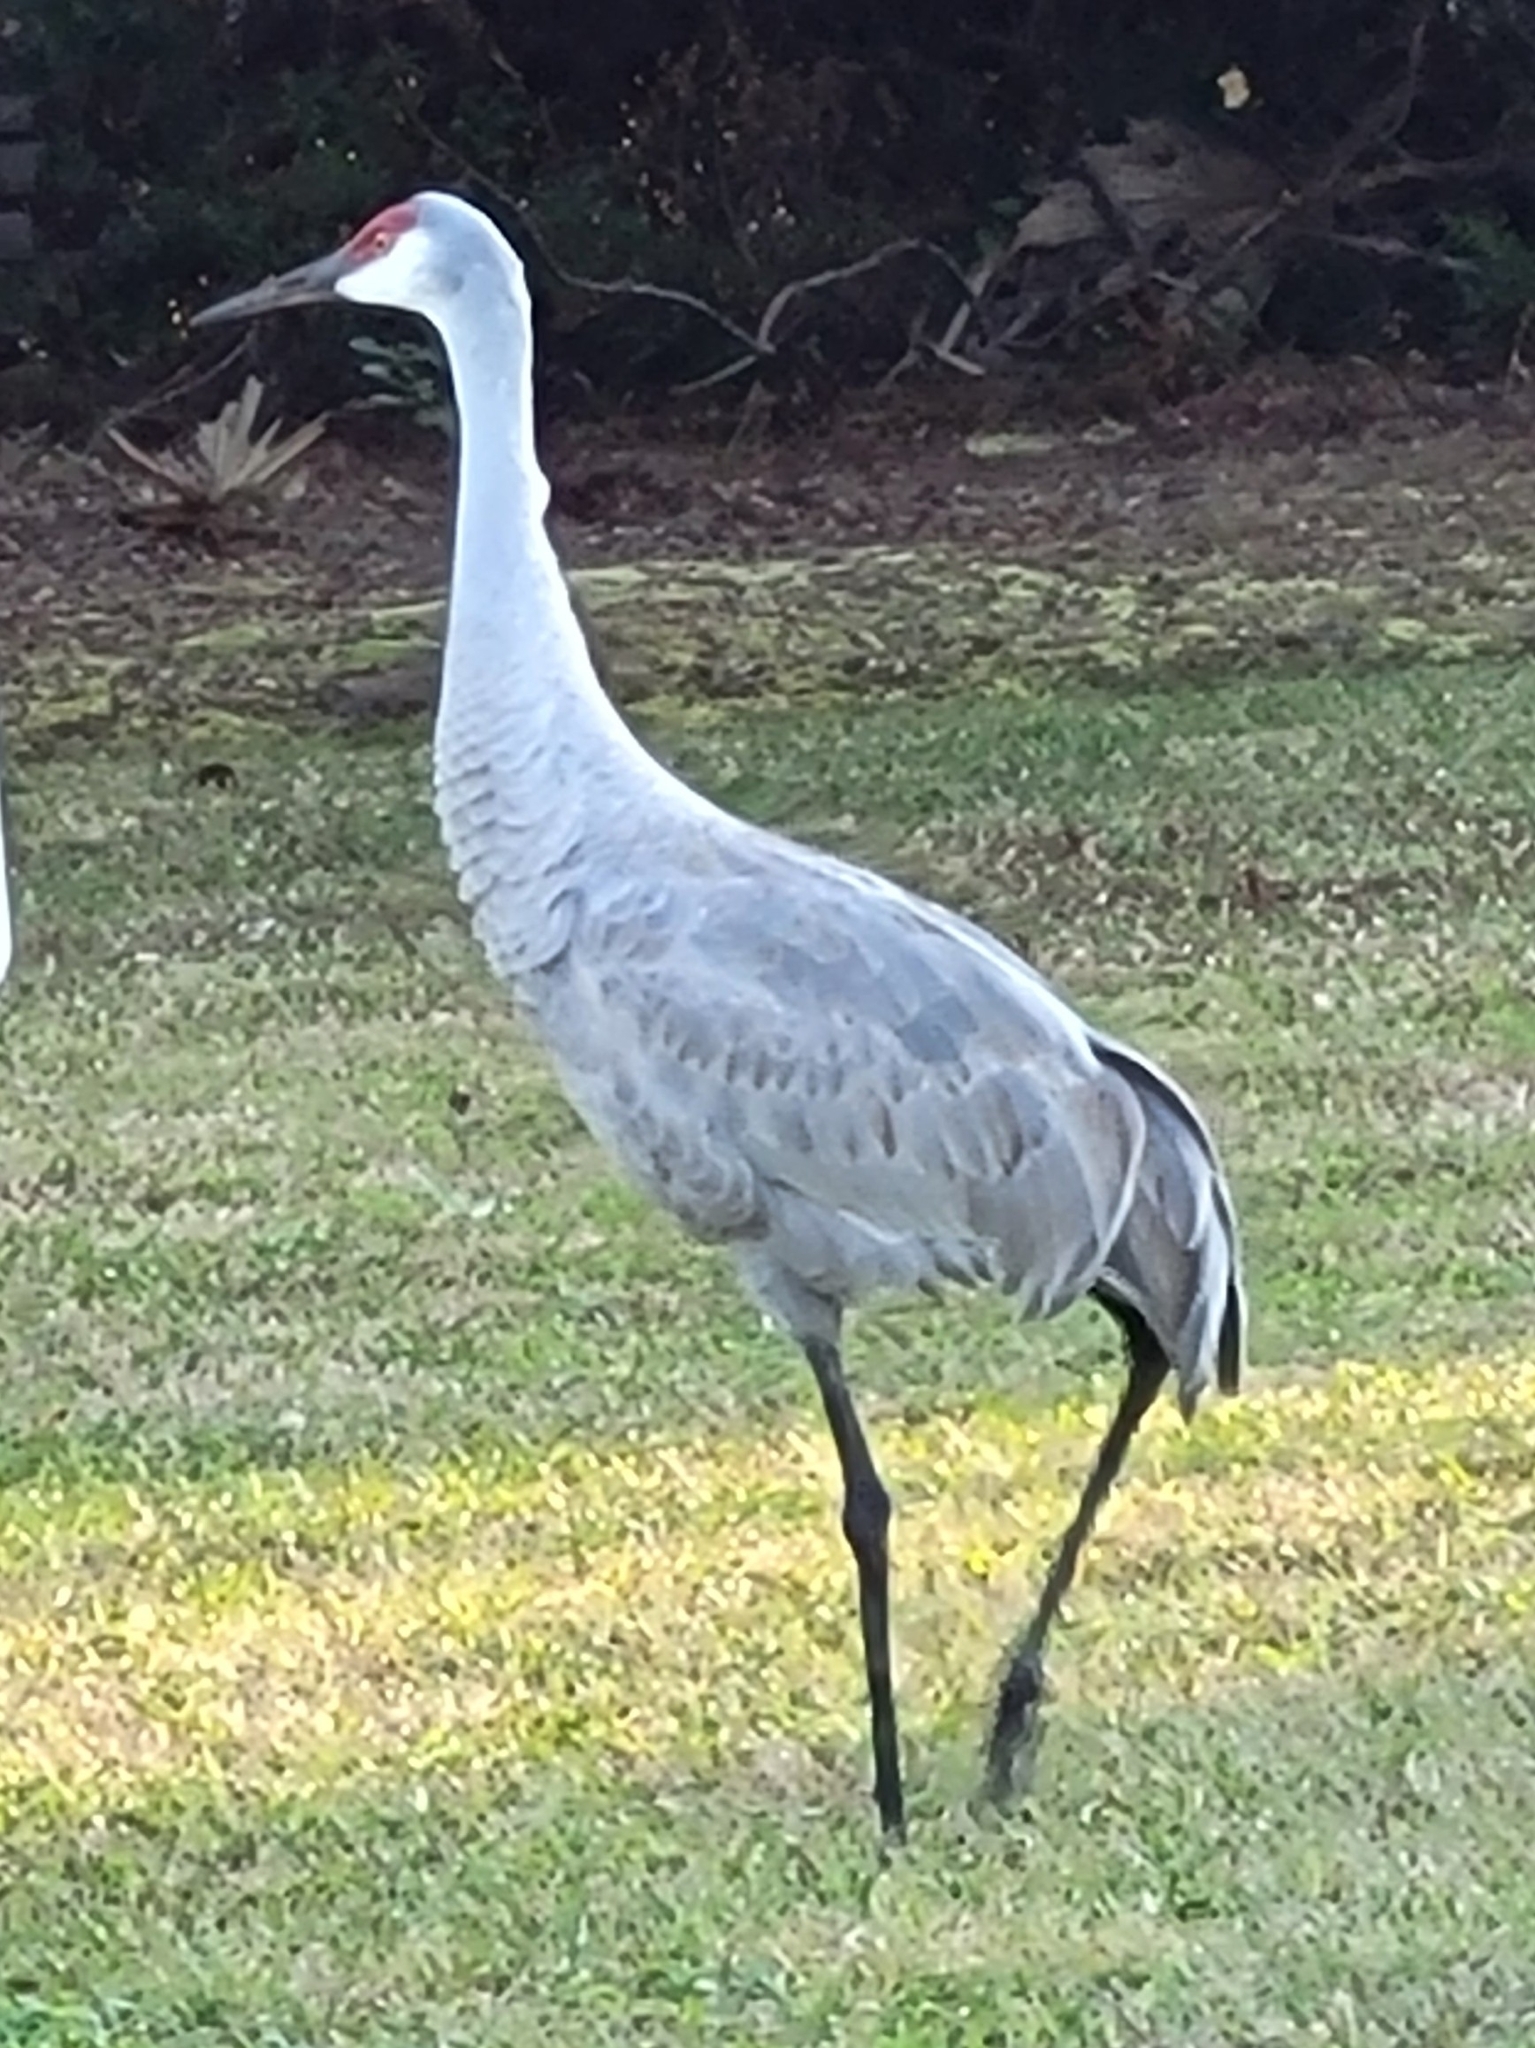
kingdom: Animalia
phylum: Chordata
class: Aves
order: Gruiformes
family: Gruidae
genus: Grus
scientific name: Grus canadensis
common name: Sandhill crane
